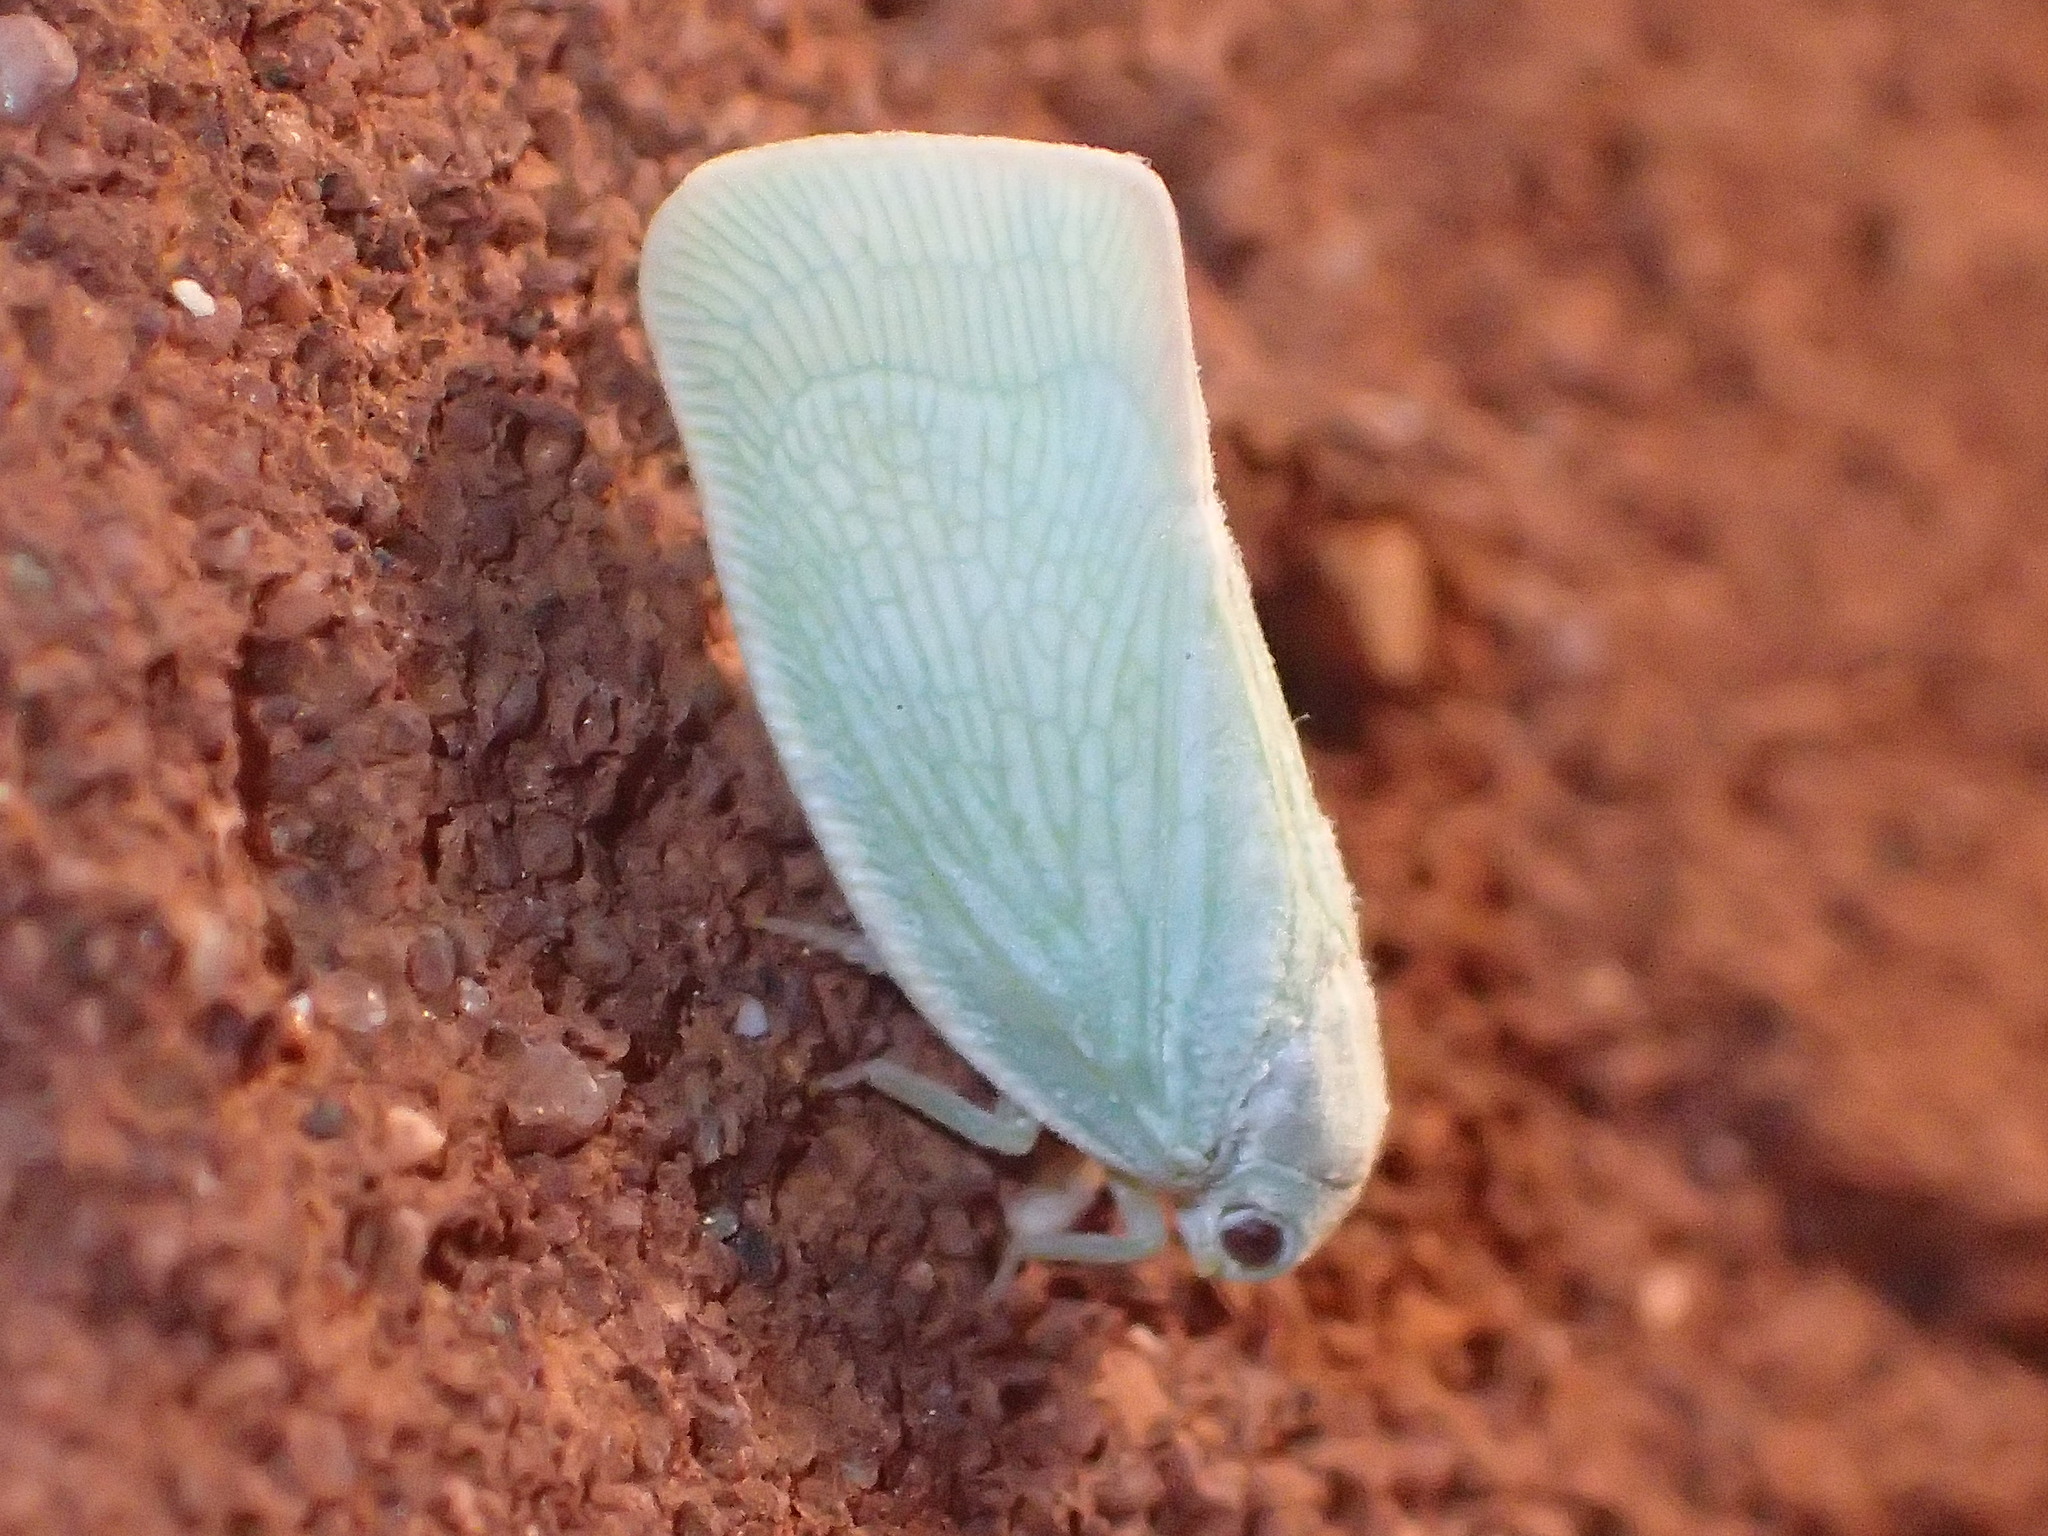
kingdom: Animalia
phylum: Arthropoda
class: Insecta
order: Hemiptera
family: Flatidae
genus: Flatormenis
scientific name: Flatormenis proxima
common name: Northern flatid planthopper
